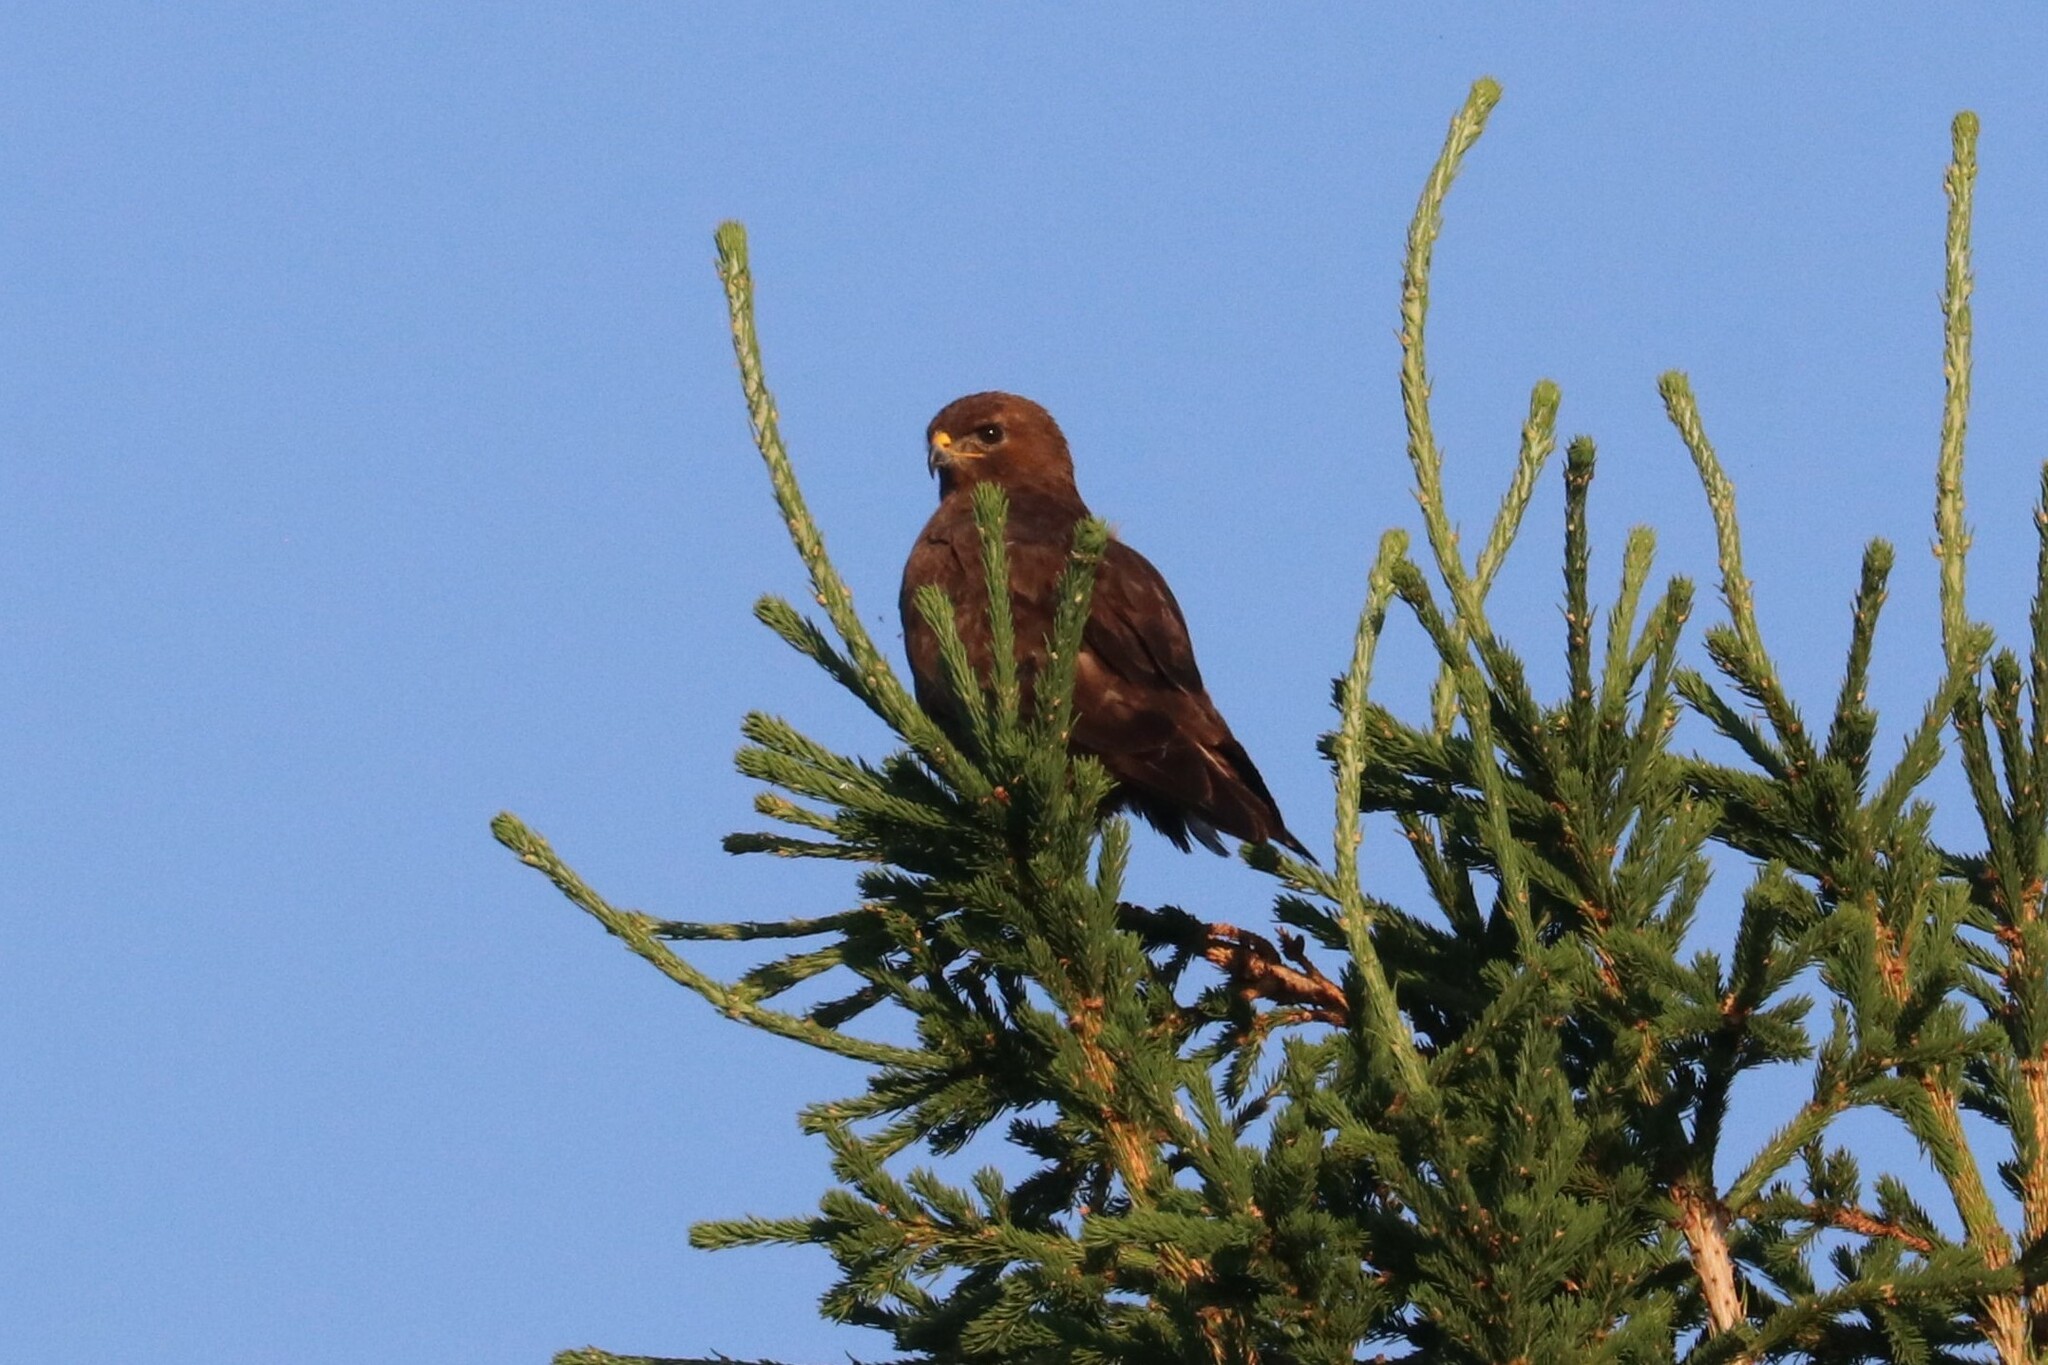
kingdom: Animalia
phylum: Chordata
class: Aves
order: Accipitriformes
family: Accipitridae
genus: Buteo
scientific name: Buteo buteo
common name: Common buzzard
